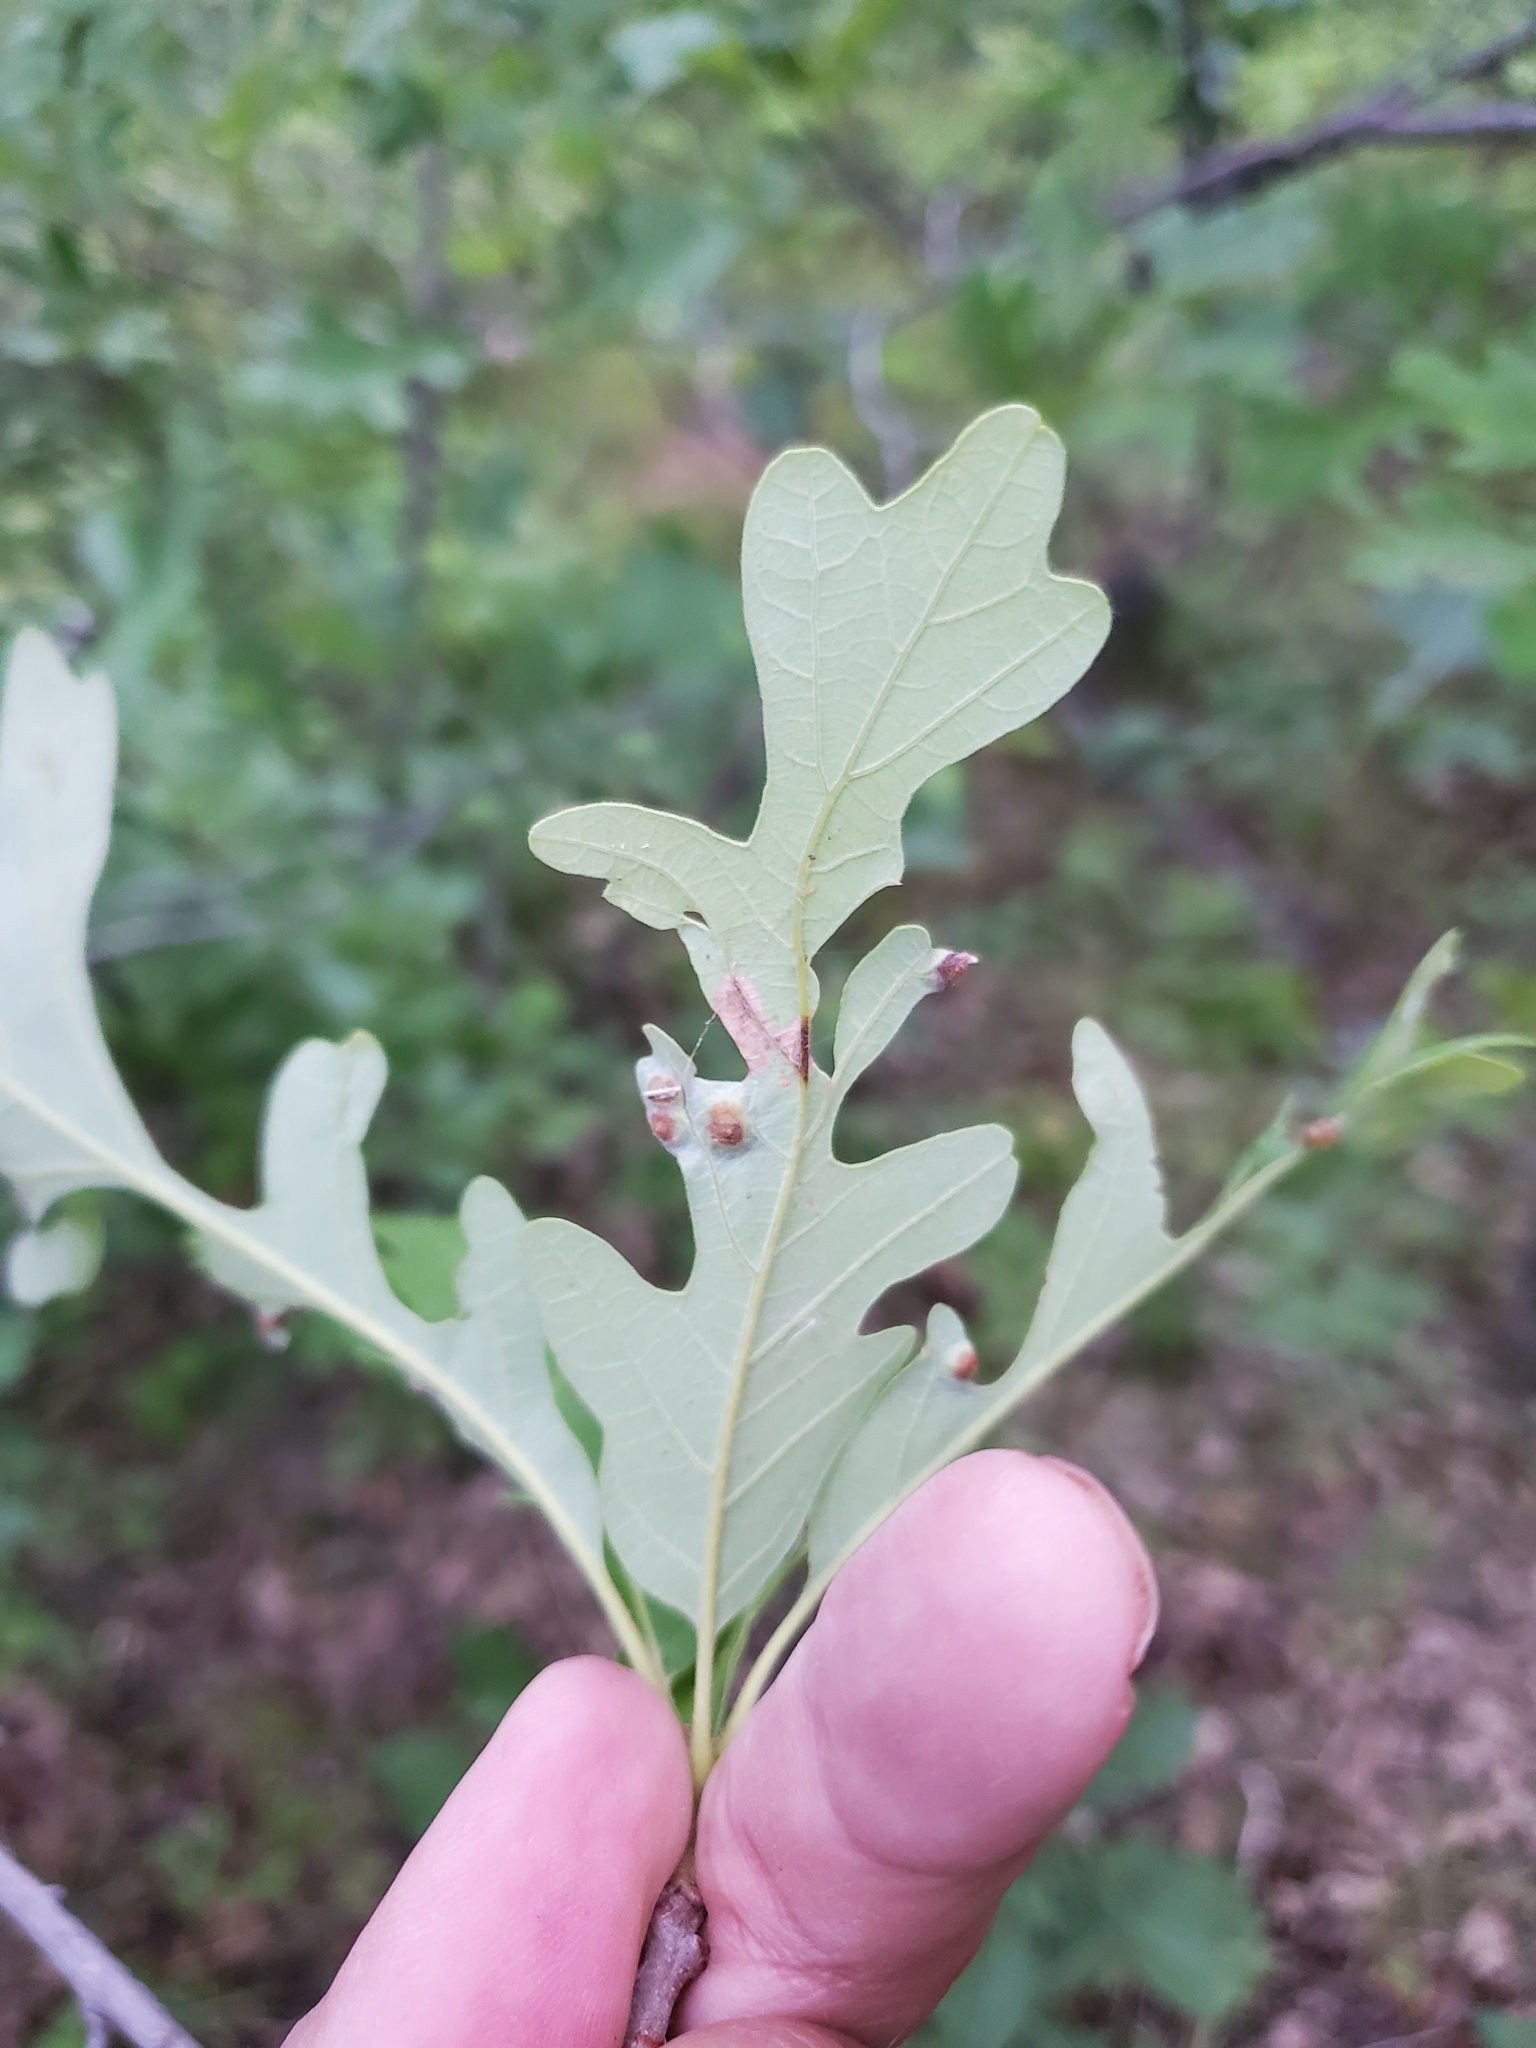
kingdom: Animalia
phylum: Arthropoda
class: Insecta
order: Hymenoptera
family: Cynipidae
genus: Callirhytis
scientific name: Callirhytis
